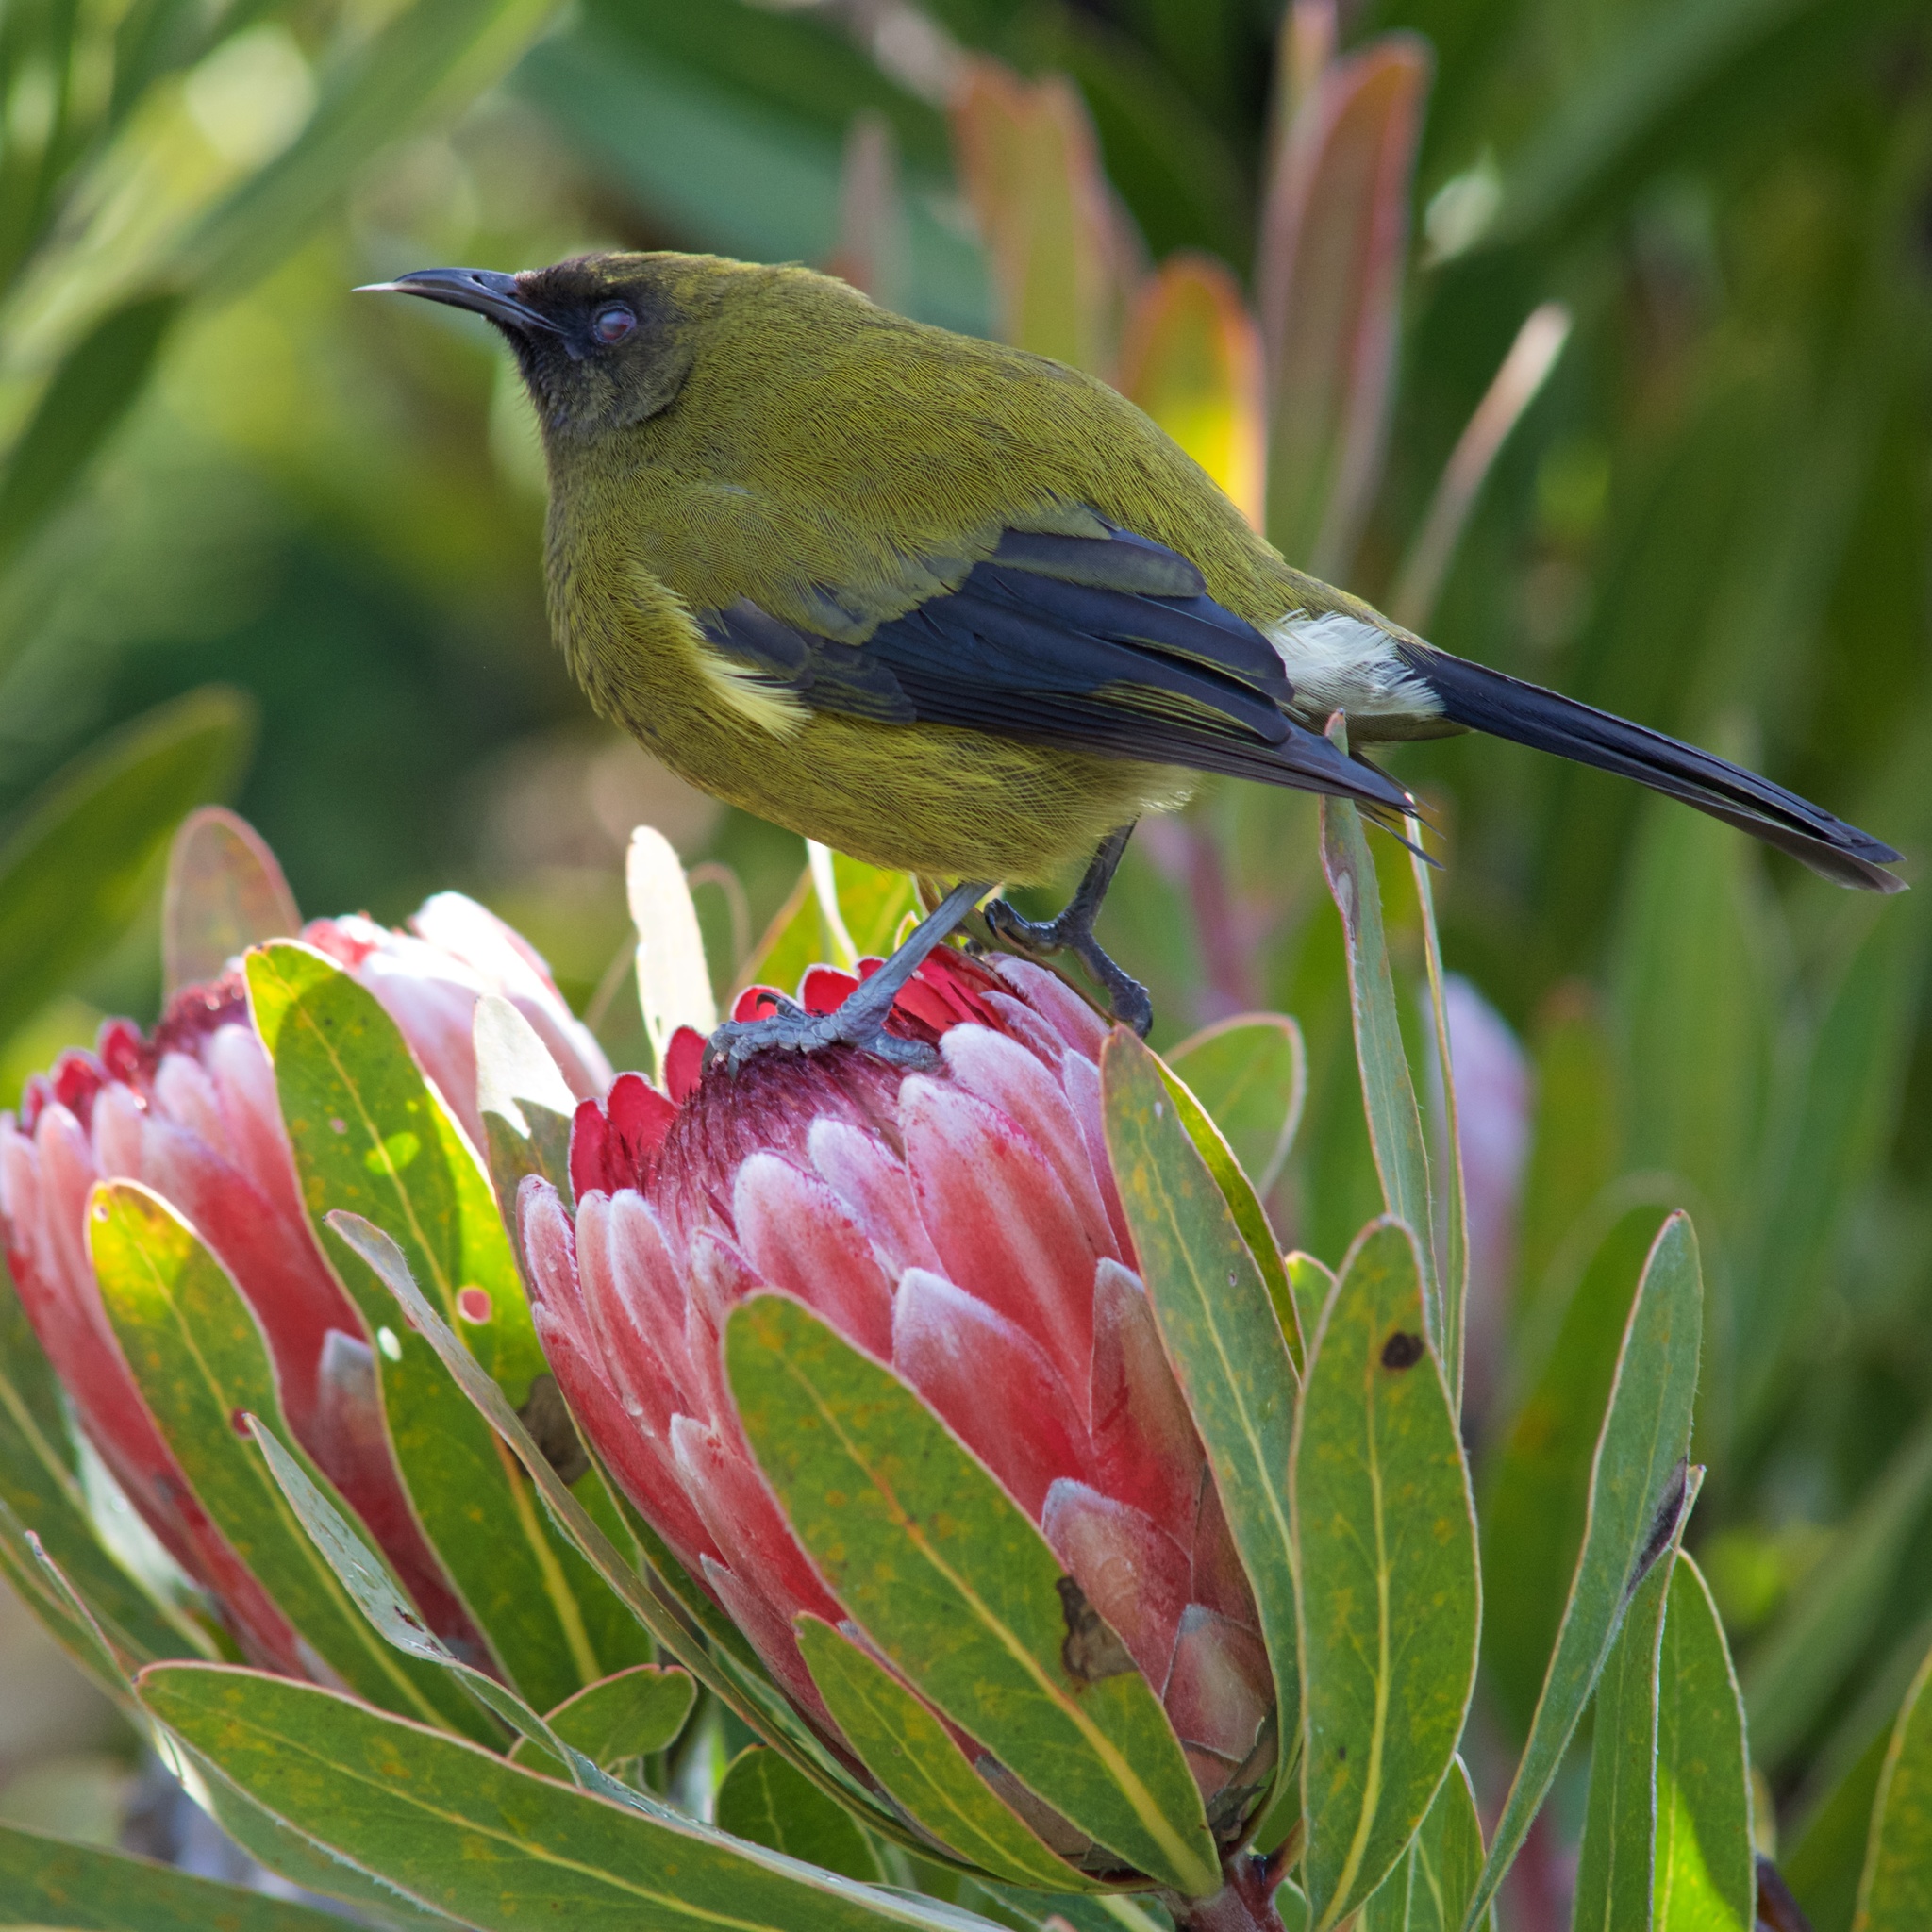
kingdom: Animalia
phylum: Chordata
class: Aves
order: Passeriformes
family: Meliphagidae
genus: Anthornis
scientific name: Anthornis melanura
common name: New zealand bellbird
